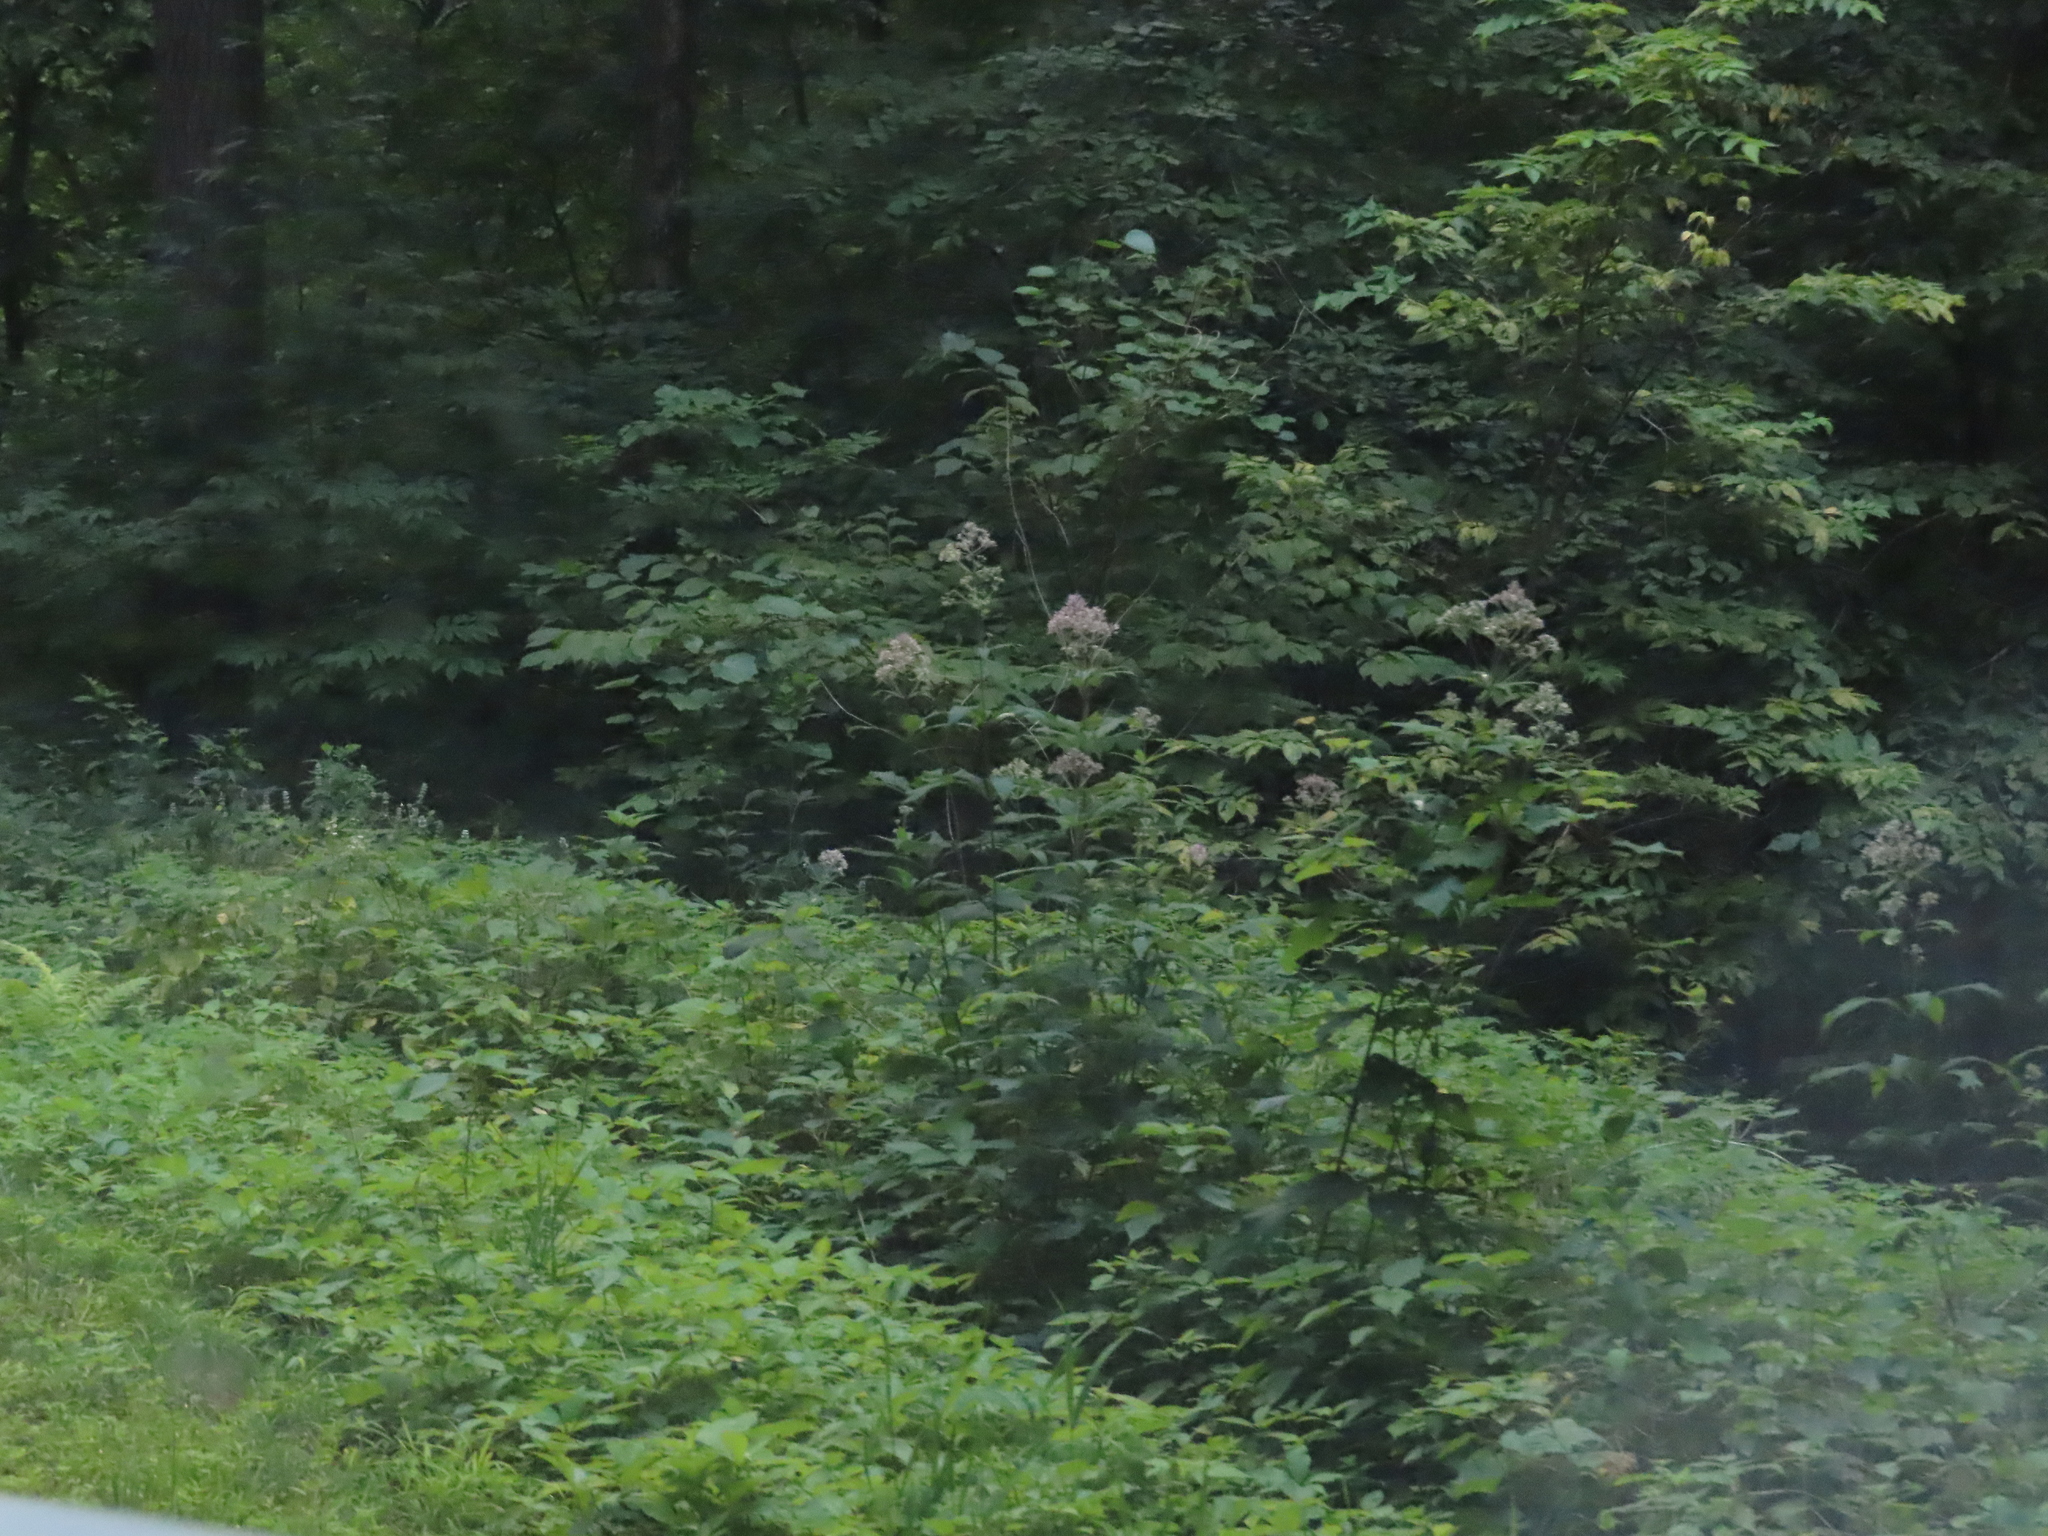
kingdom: Plantae
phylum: Tracheophyta
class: Magnoliopsida
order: Asterales
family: Asteraceae
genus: Eutrochium
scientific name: Eutrochium maculatum
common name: Spotted joe pye weed
